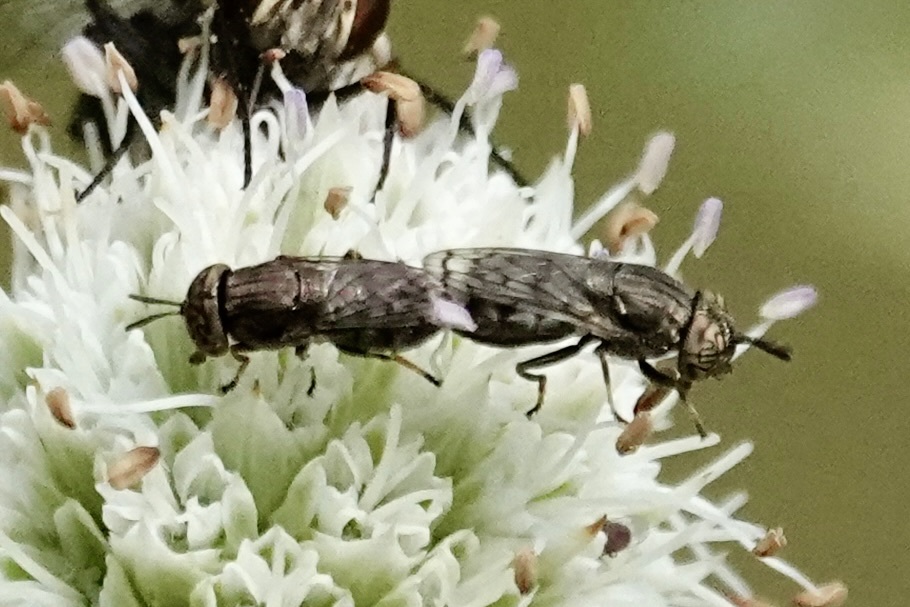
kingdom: Animalia
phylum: Arthropoda
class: Insecta
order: Diptera
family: Syrphidae
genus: Orthonevra
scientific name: Orthonevra nitida
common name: Wavy mucksucker
